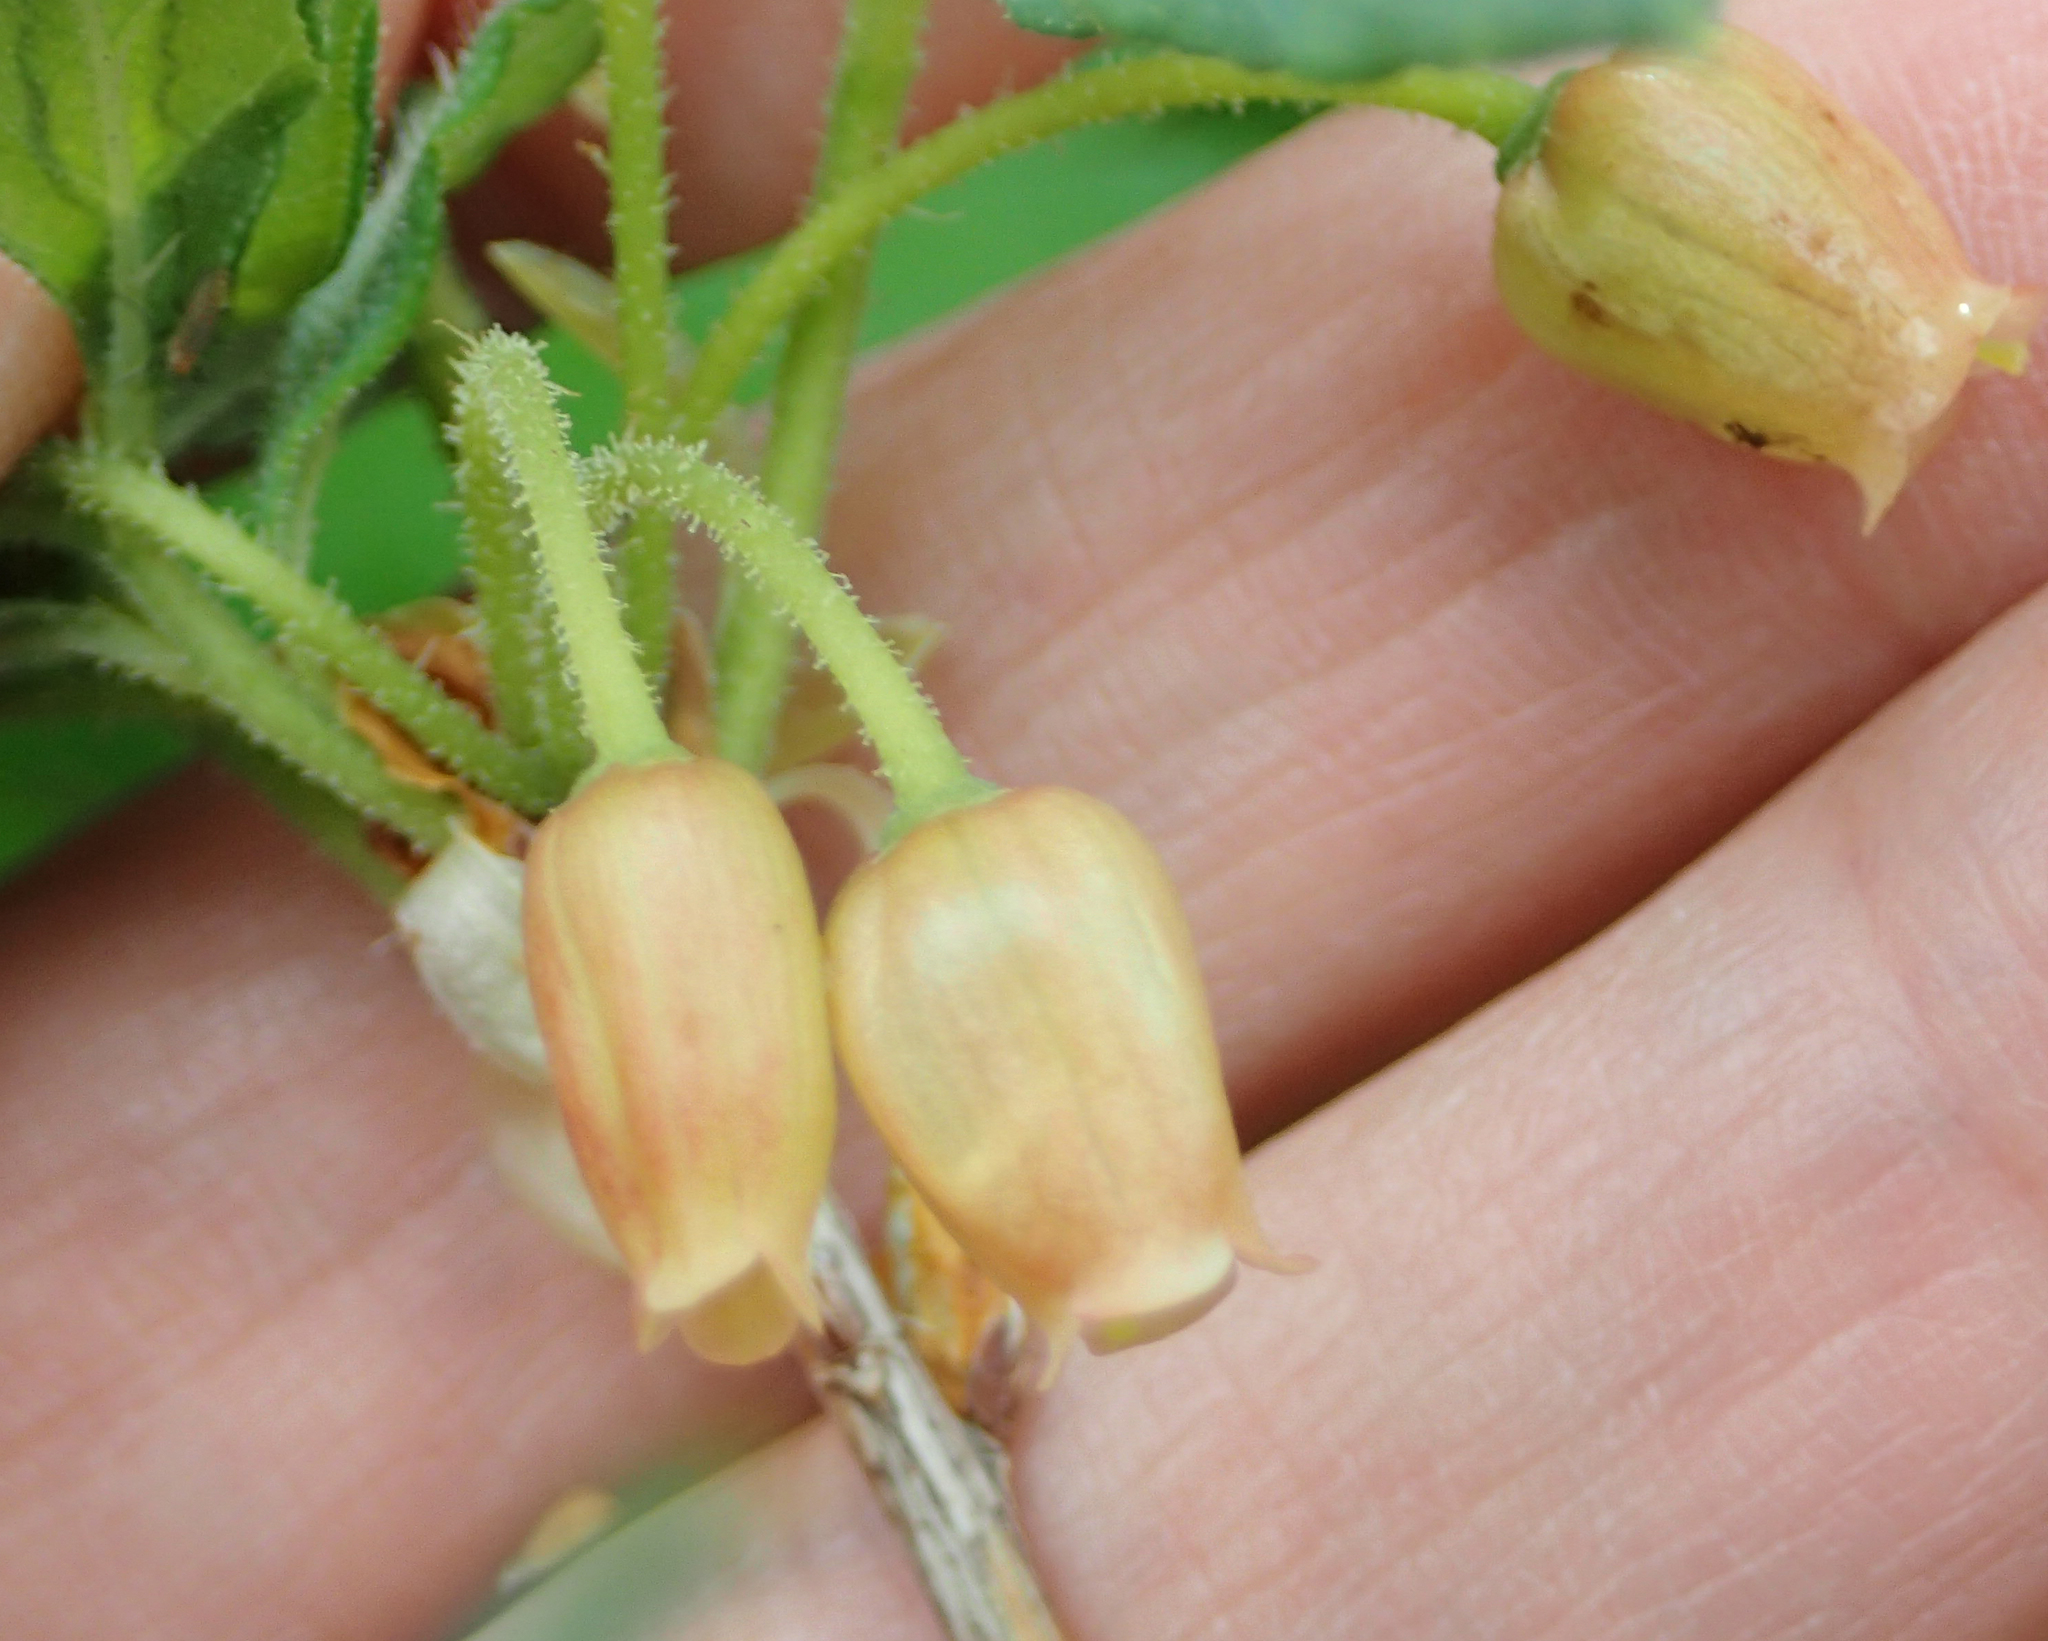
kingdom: Plantae
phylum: Tracheophyta
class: Magnoliopsida
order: Ericales
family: Ericaceae
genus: Rhododendron
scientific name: Rhododendron menziesii
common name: Pacific menziesia
